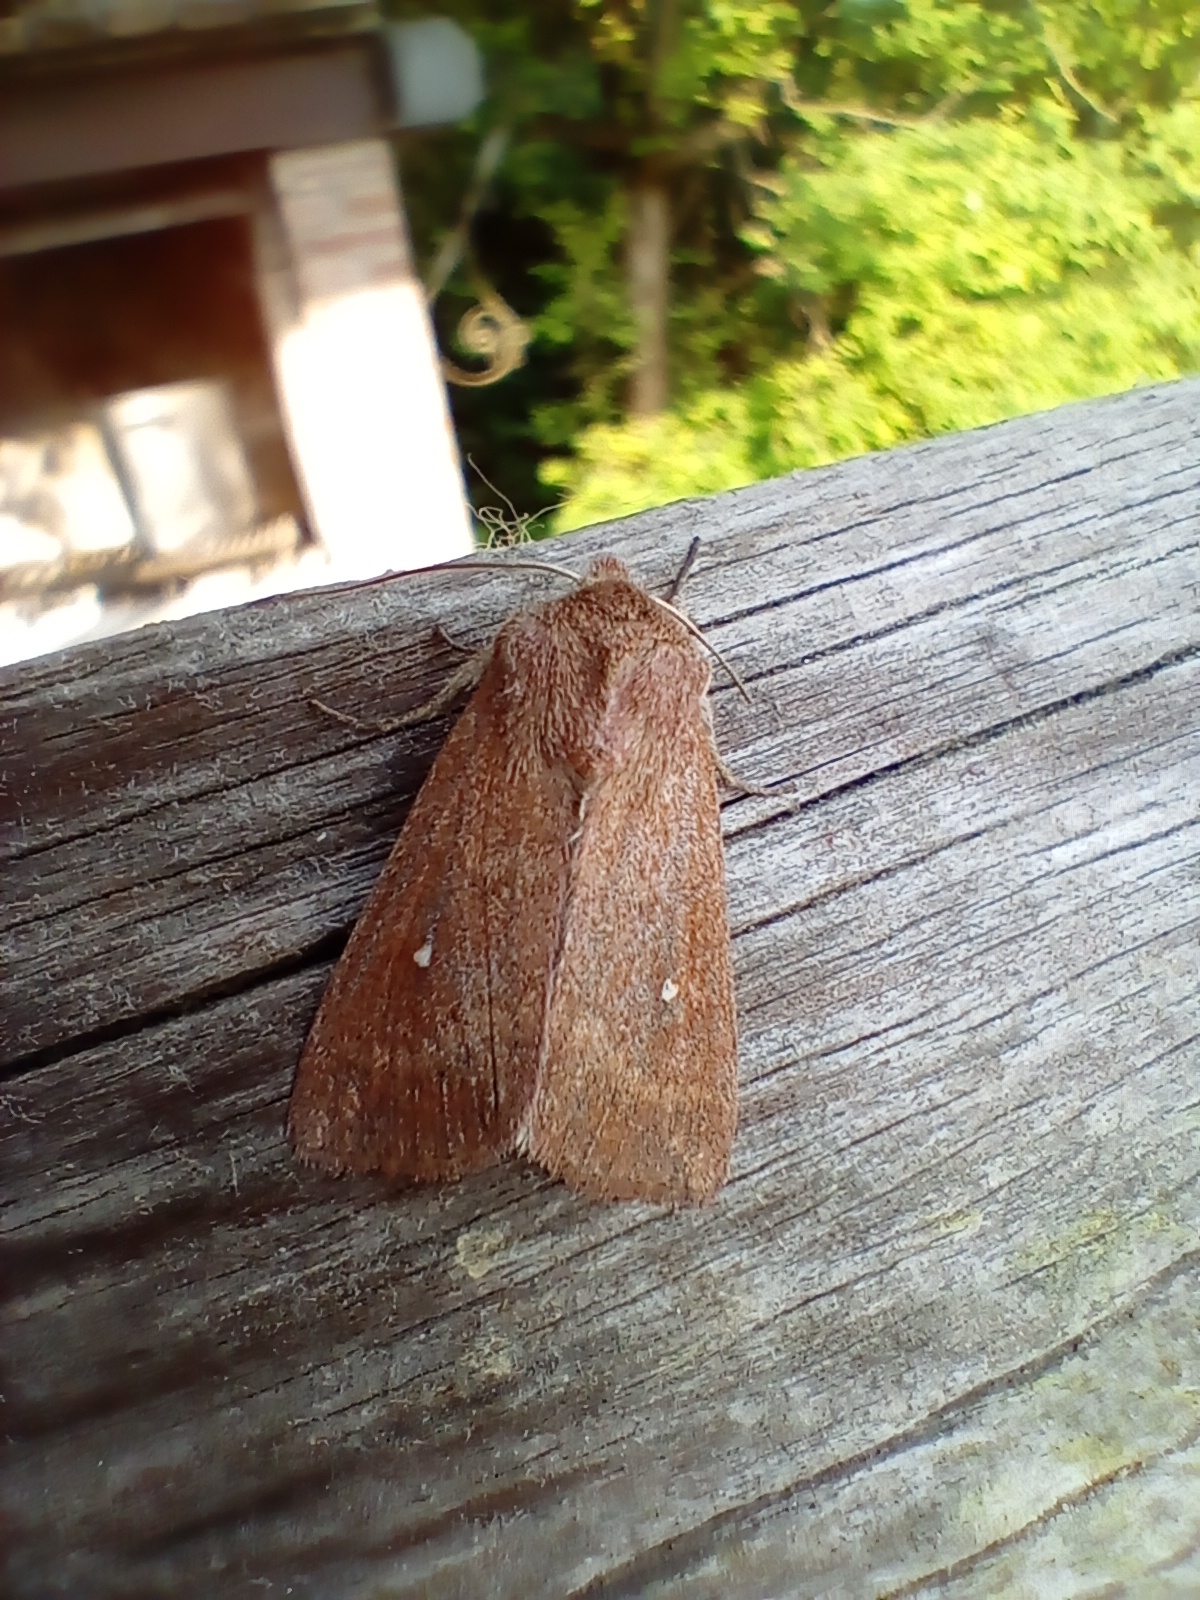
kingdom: Animalia
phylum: Arthropoda
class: Insecta
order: Lepidoptera
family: Noctuidae
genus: Mythimna
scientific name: Mythimna albipuncta
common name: White-point
